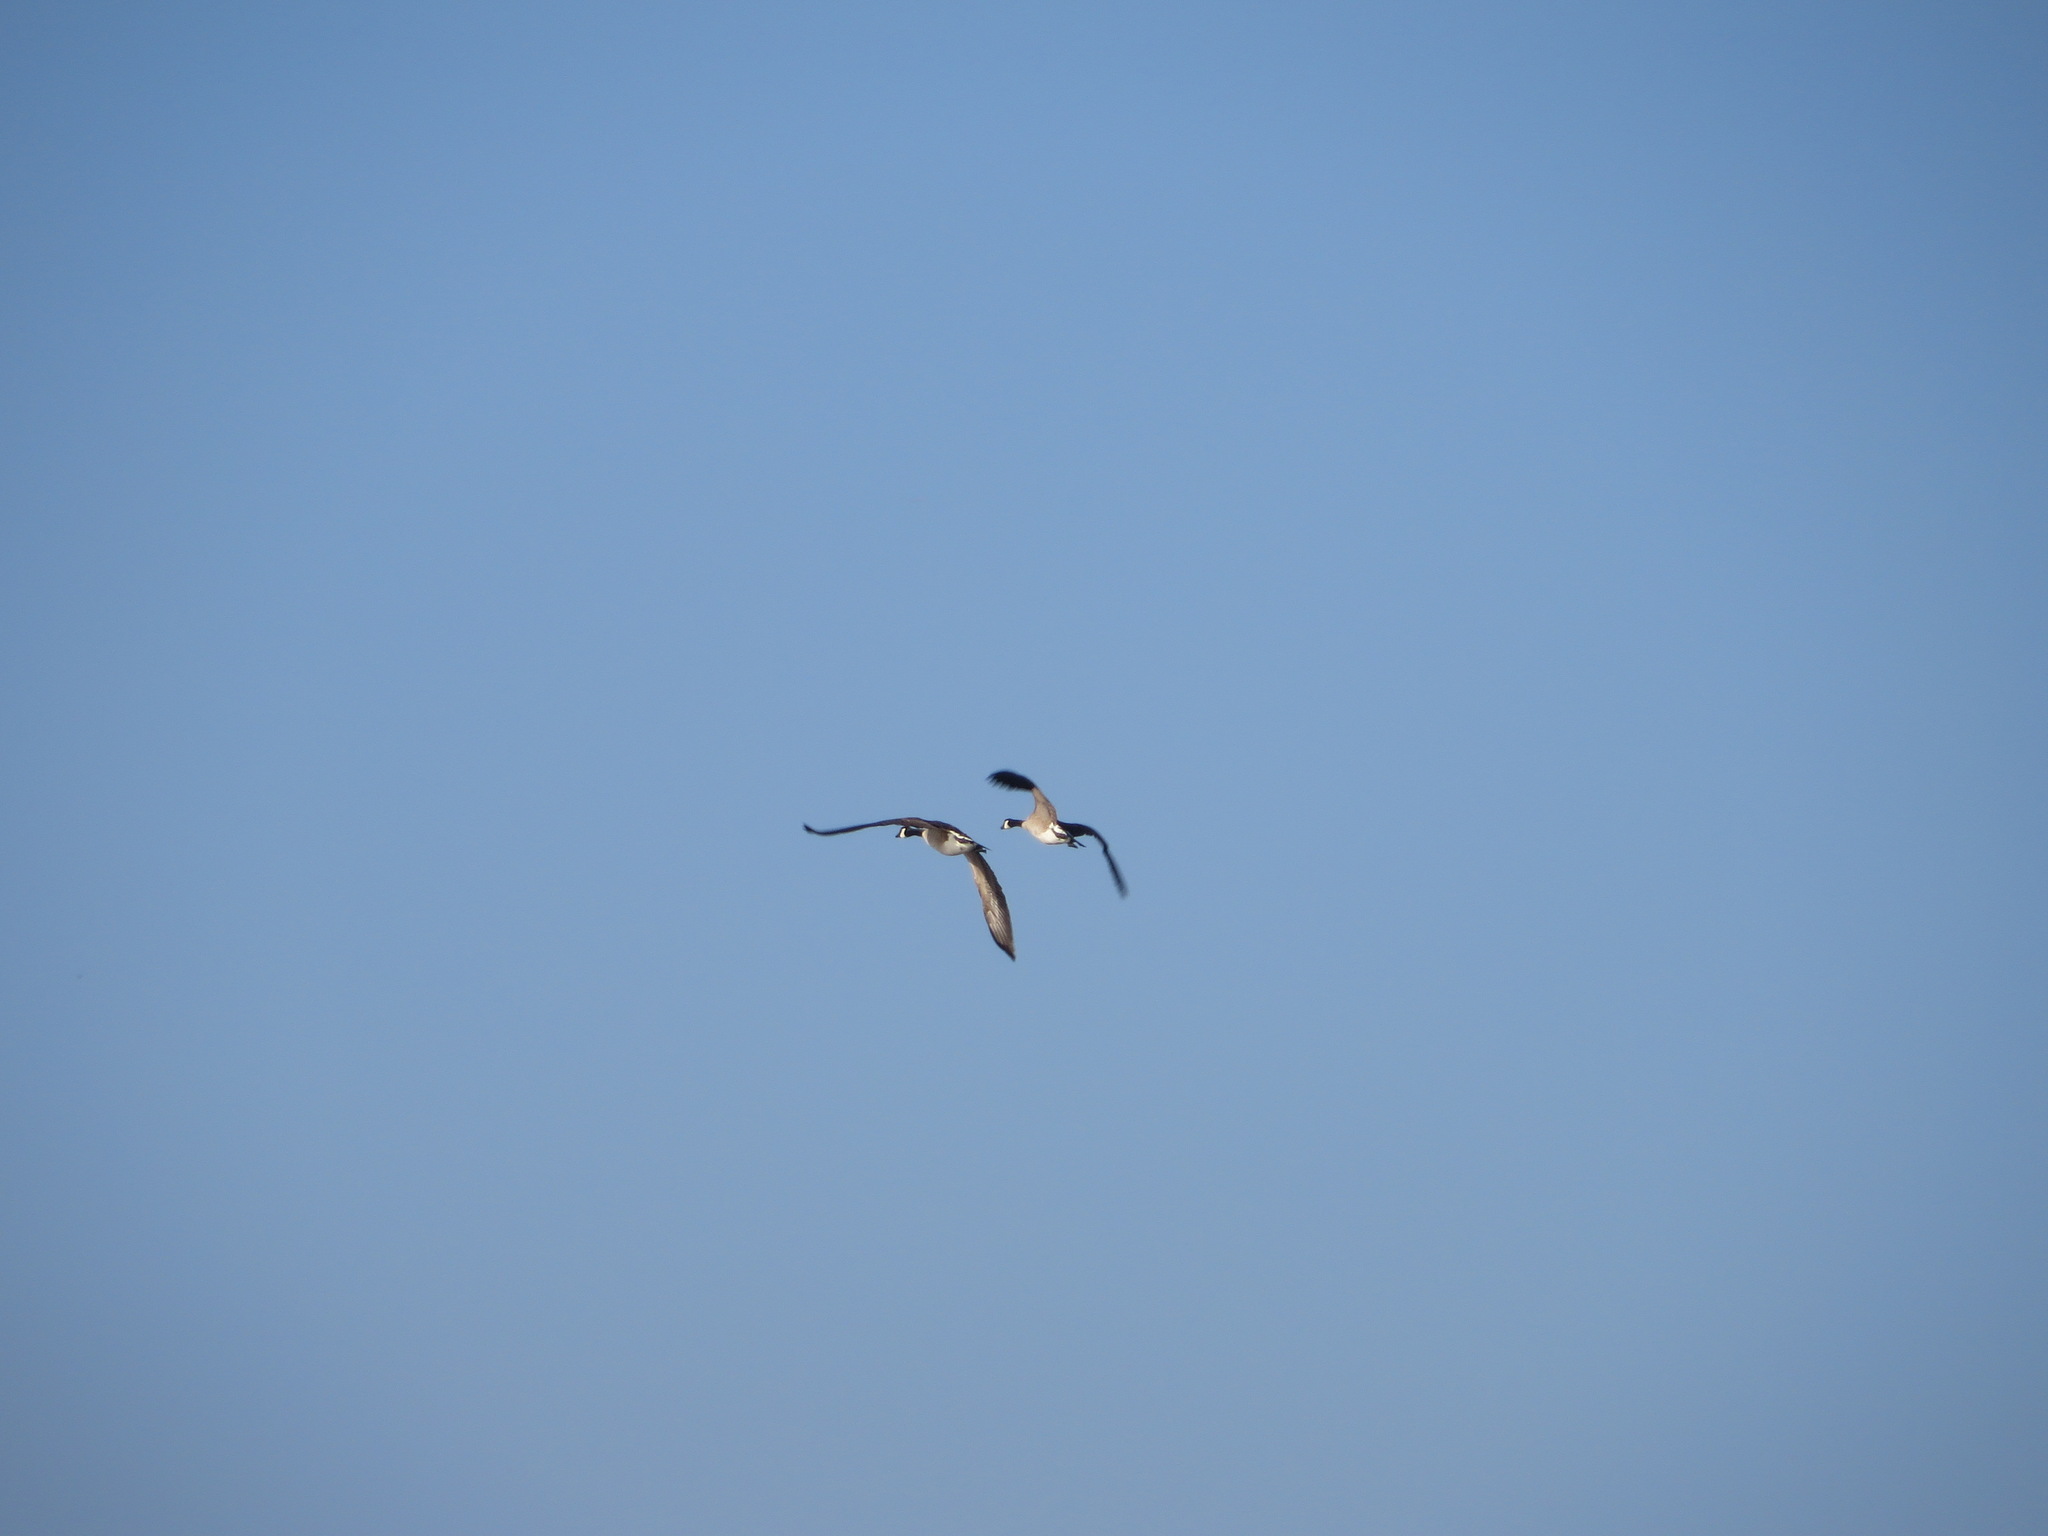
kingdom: Animalia
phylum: Chordata
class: Aves
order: Anseriformes
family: Anatidae
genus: Branta
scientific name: Branta canadensis
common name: Canada goose
